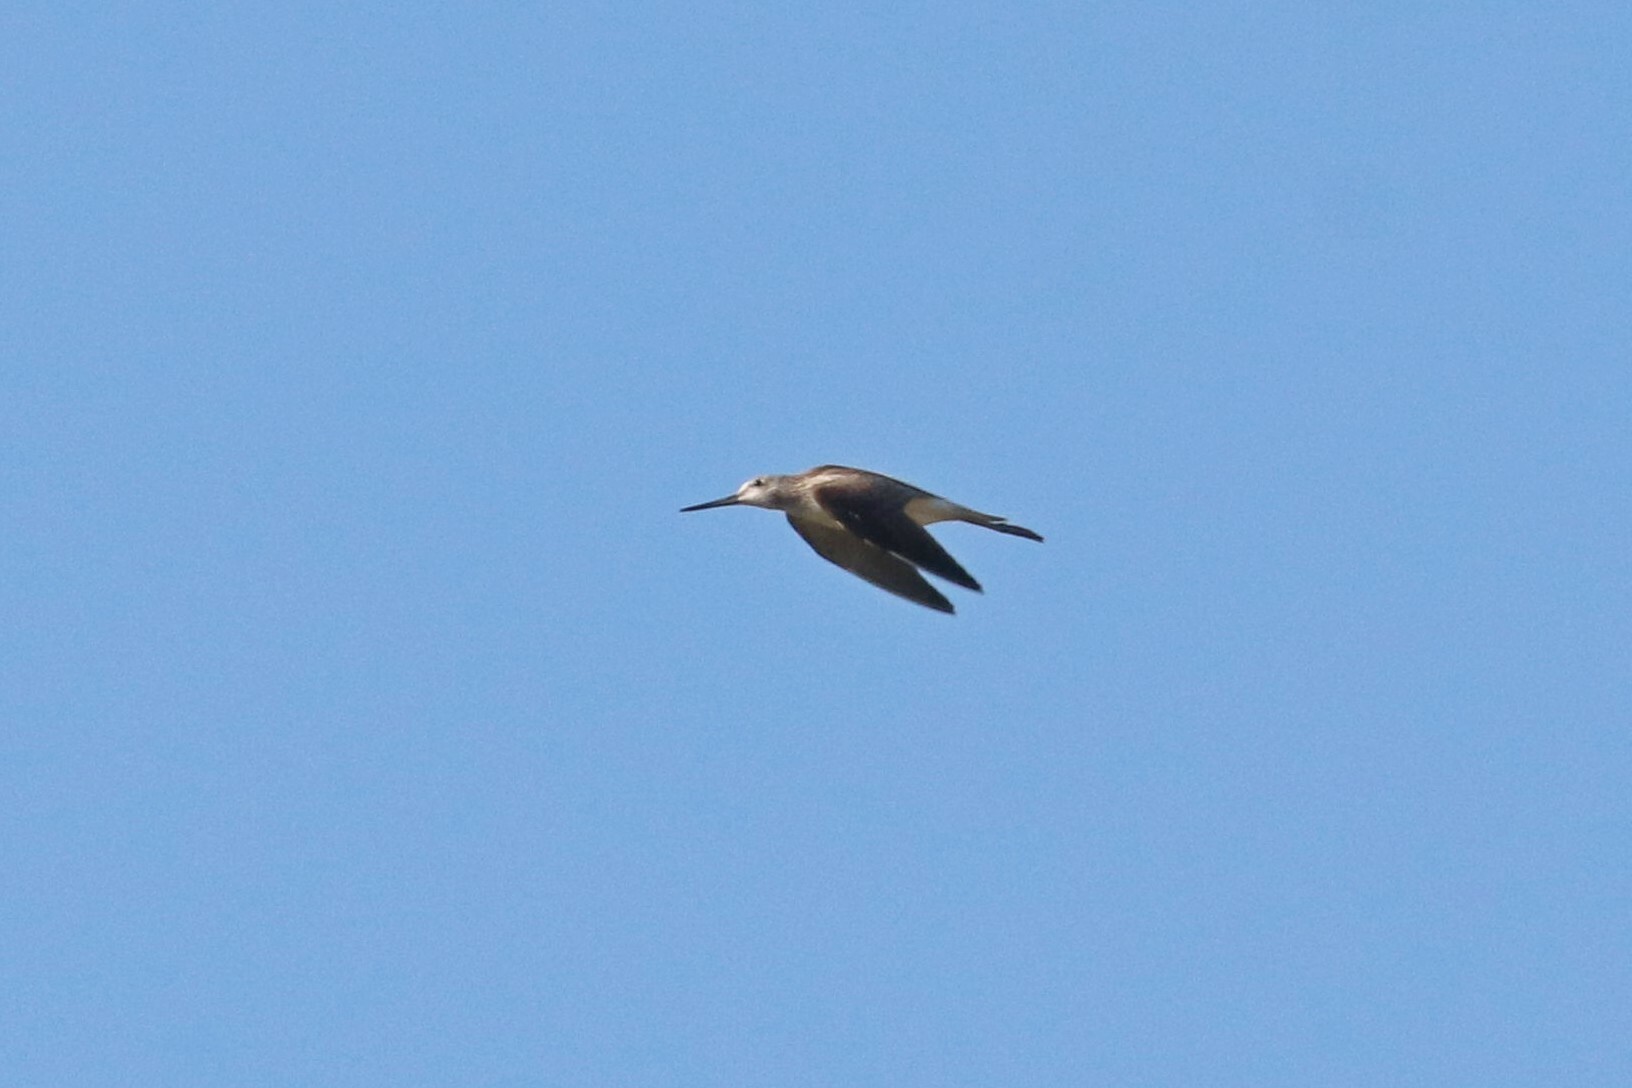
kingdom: Animalia
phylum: Chordata
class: Aves
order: Charadriiformes
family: Scolopacidae
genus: Tringa
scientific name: Tringa nebularia
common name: Common greenshank
